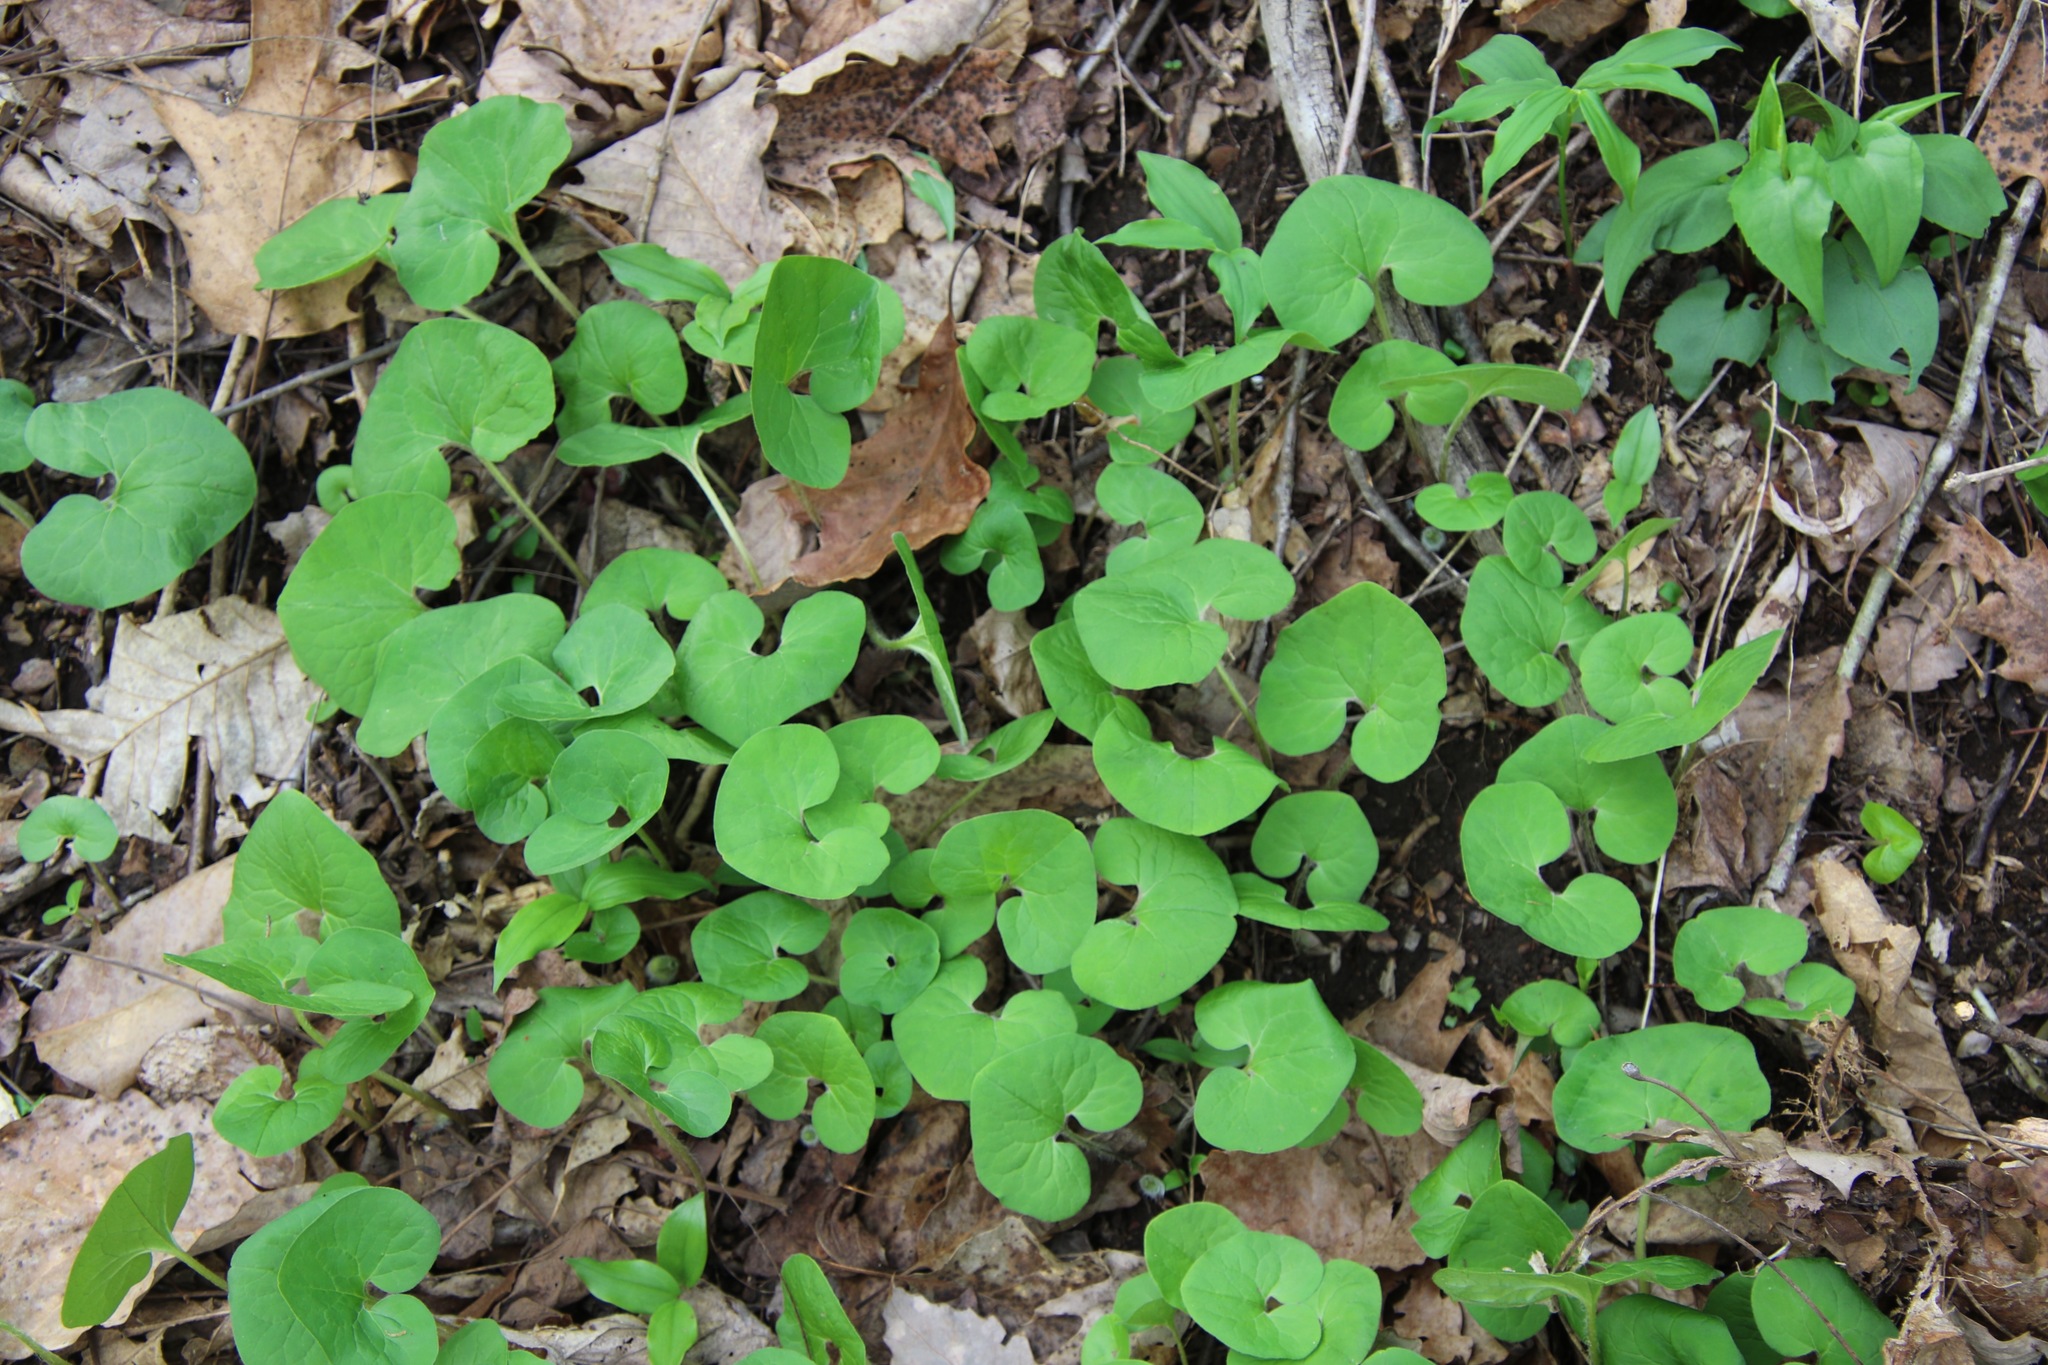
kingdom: Plantae
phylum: Tracheophyta
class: Magnoliopsida
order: Piperales
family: Aristolochiaceae
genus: Asarum
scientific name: Asarum canadense
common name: Wild ginger
